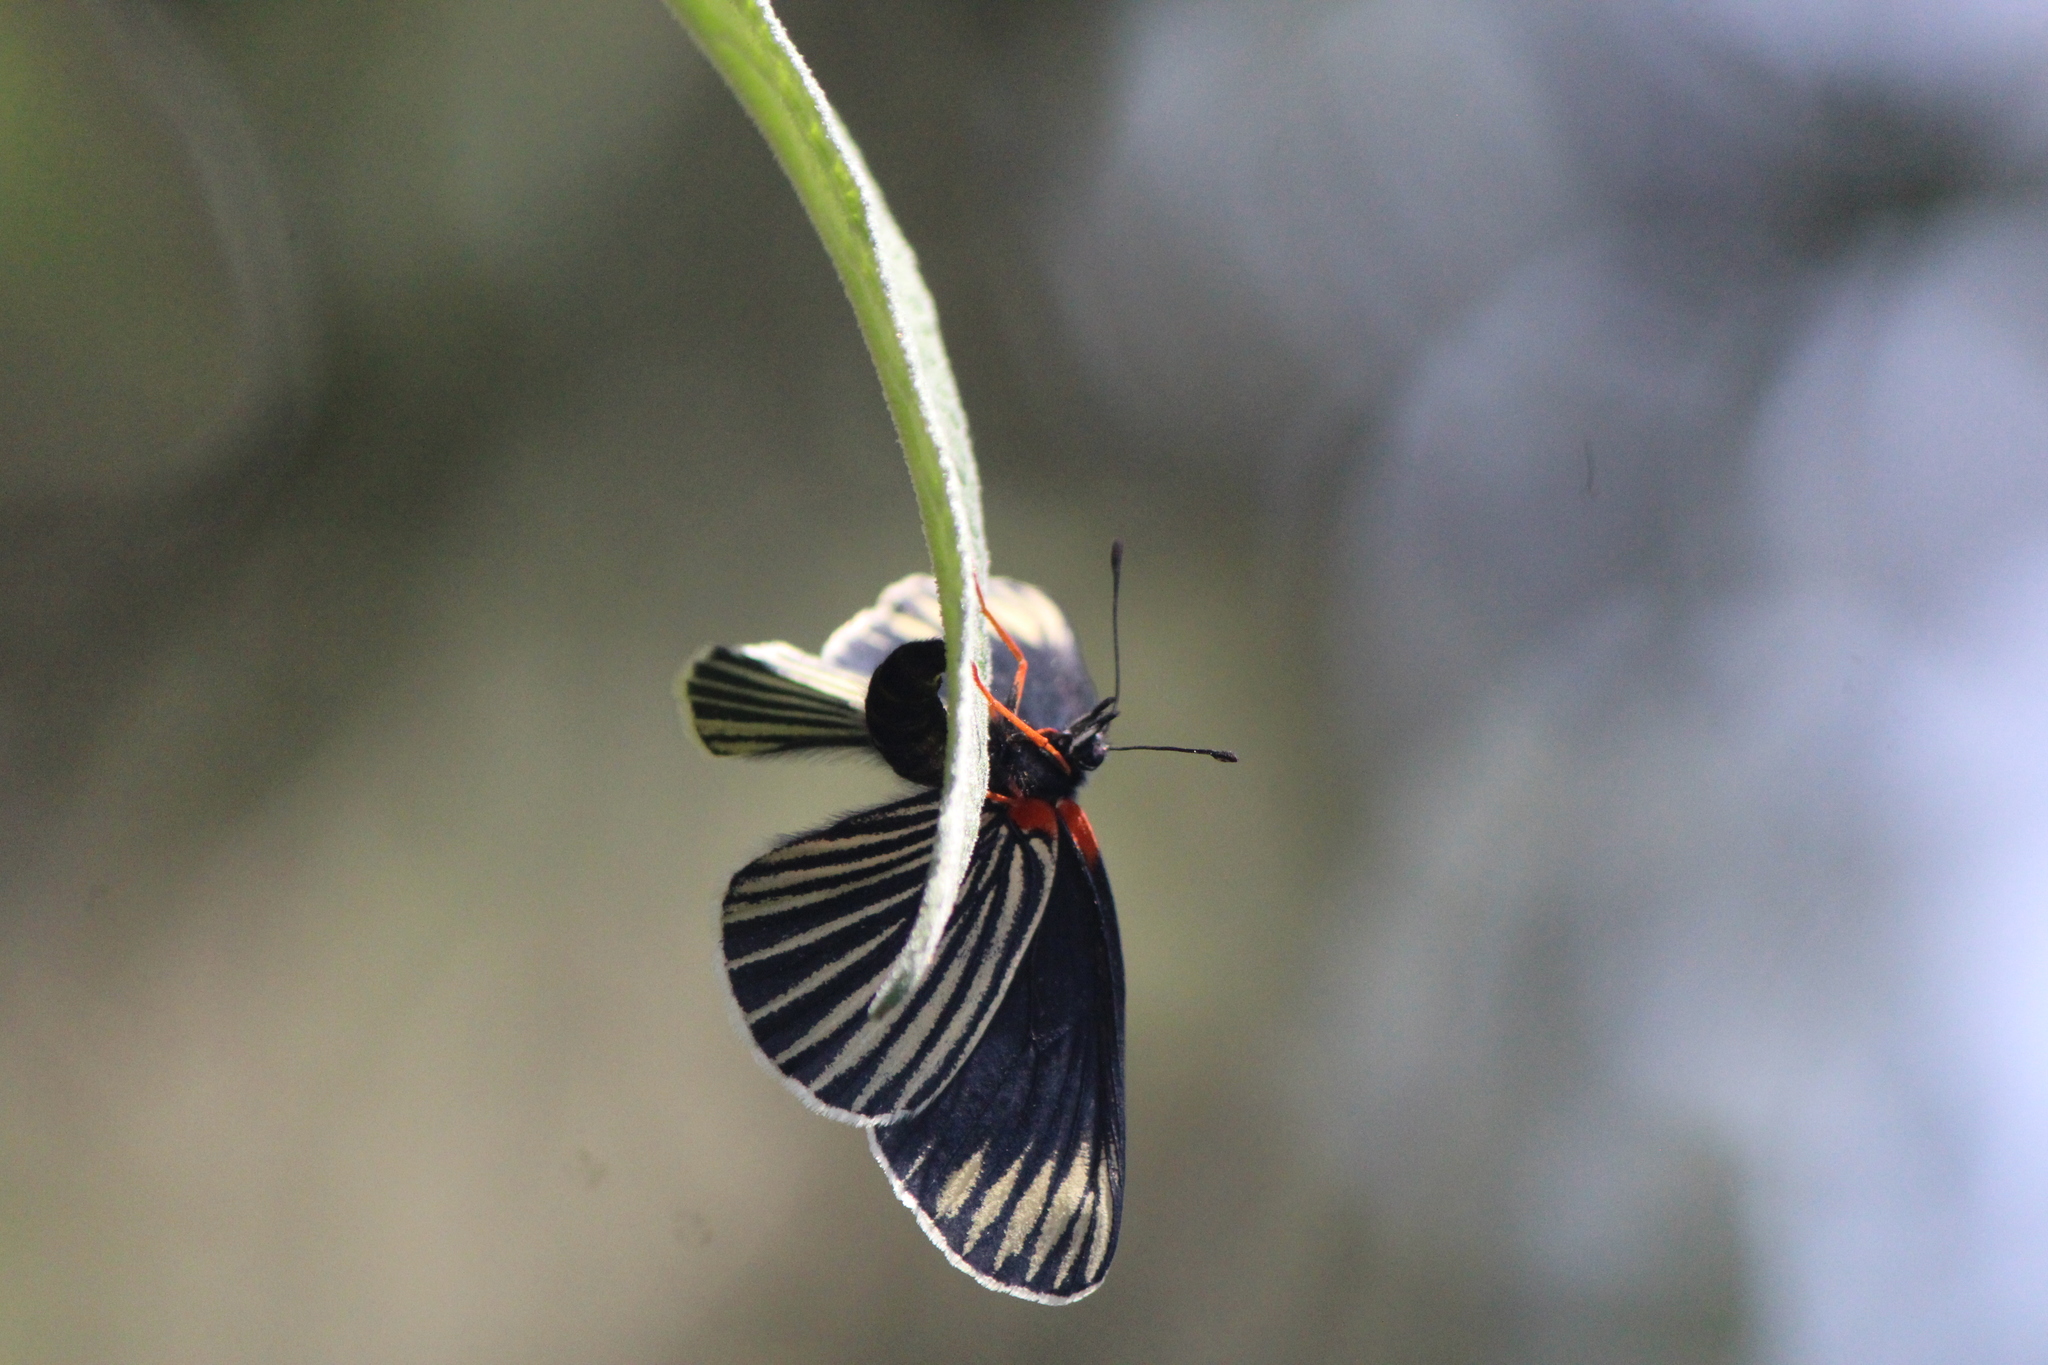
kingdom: Animalia
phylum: Arthropoda
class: Insecta
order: Lepidoptera
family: Nymphalidae
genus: Chlosyne
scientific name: Chlosyne ehrenbergii
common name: White-rayed patch
